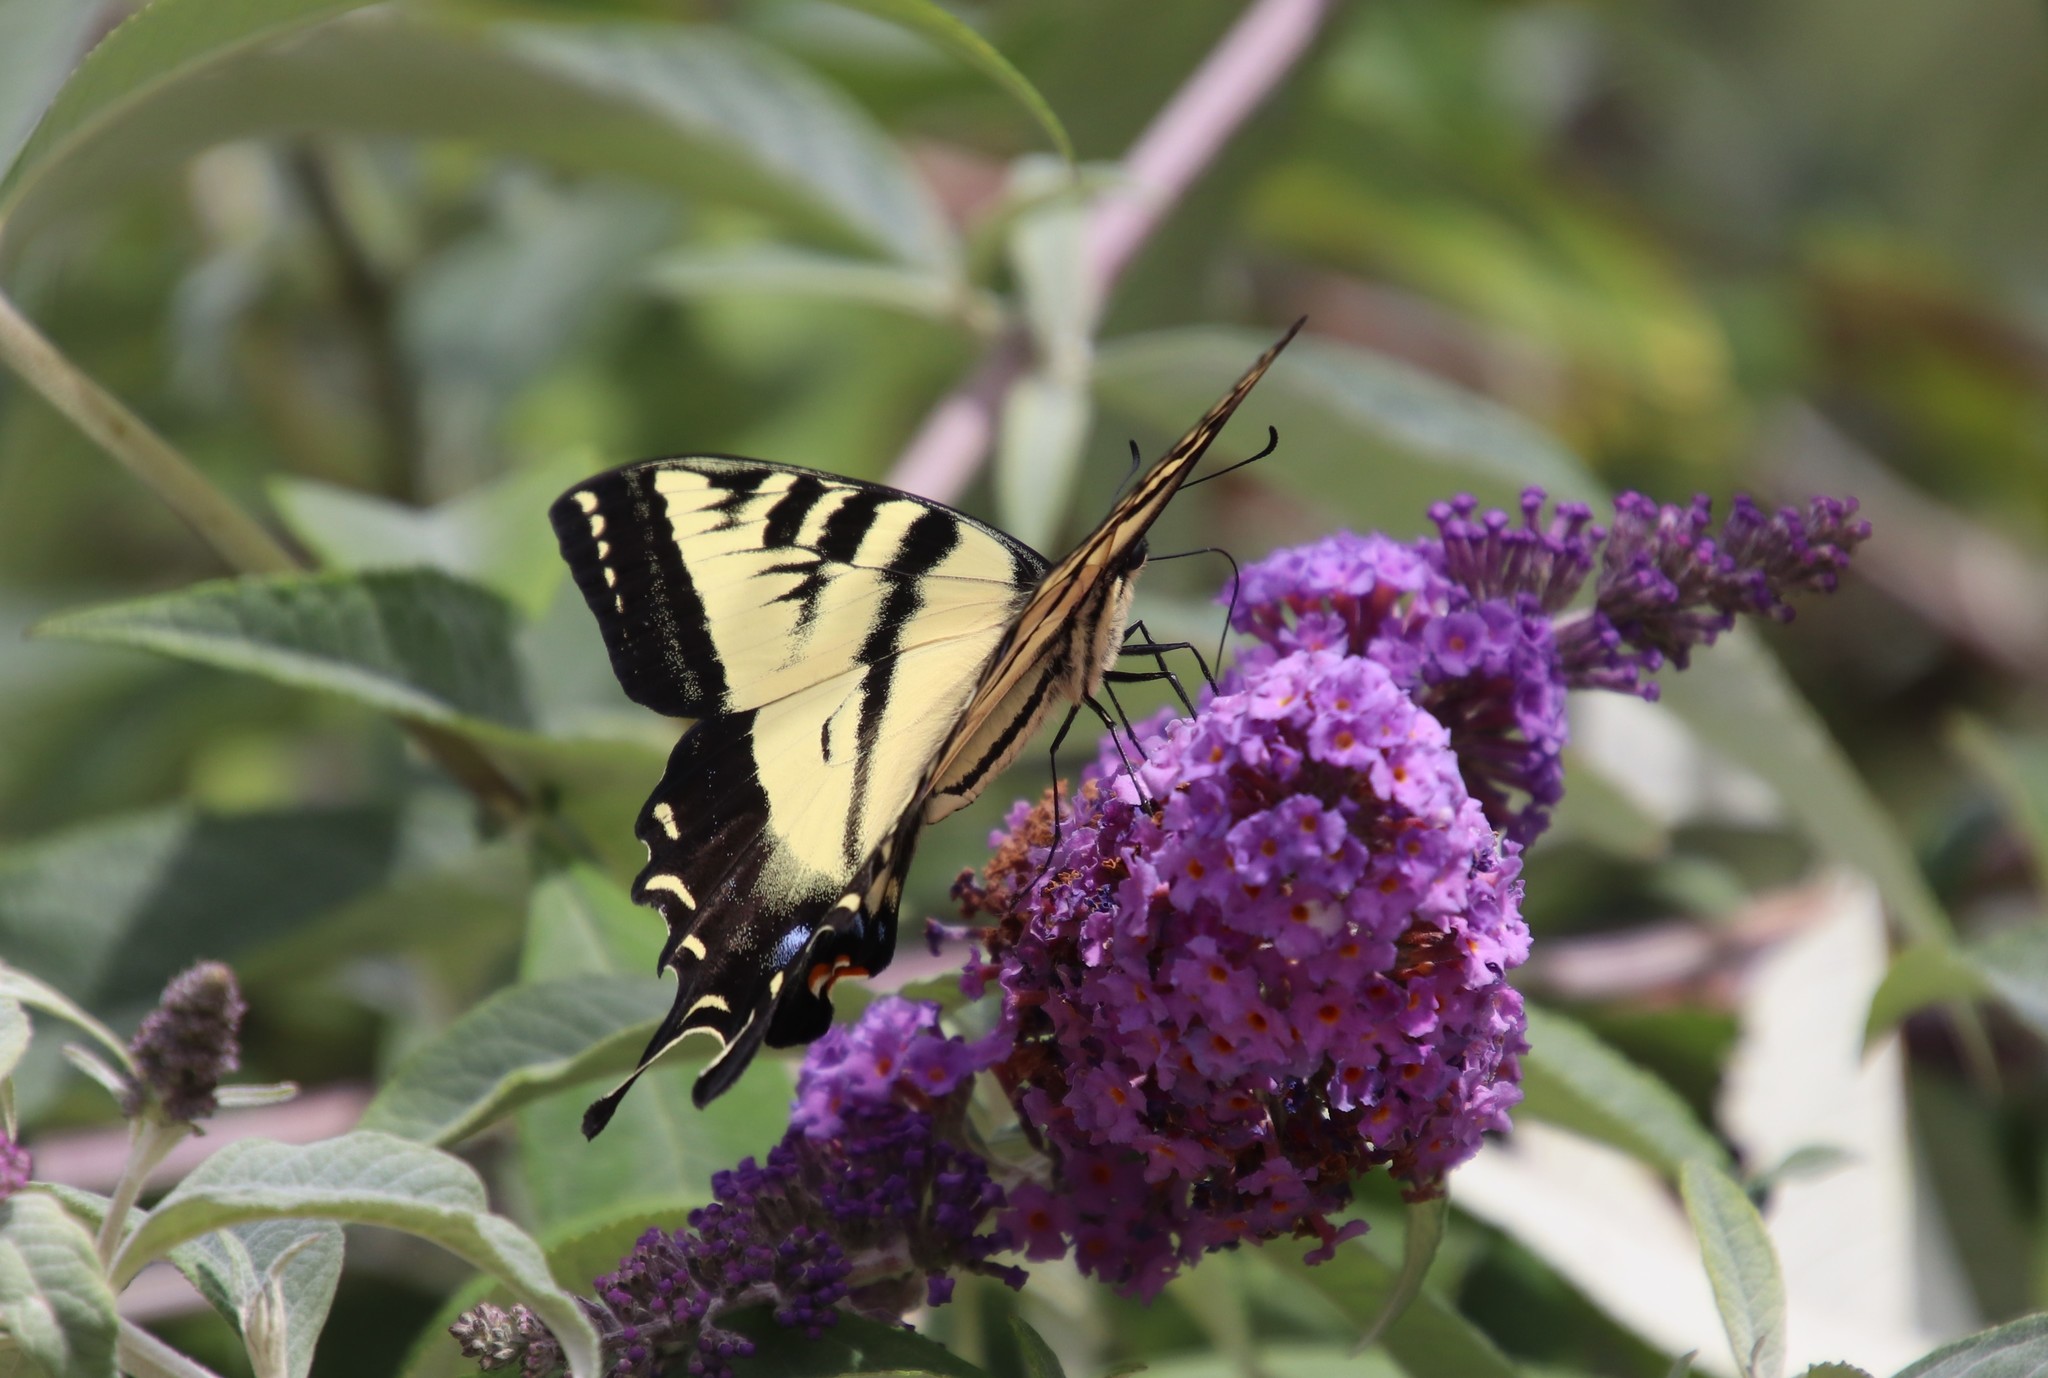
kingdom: Animalia
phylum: Arthropoda
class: Insecta
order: Lepidoptera
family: Papilionidae
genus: Papilio
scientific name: Papilio rutulus
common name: Western tiger swallowtail
